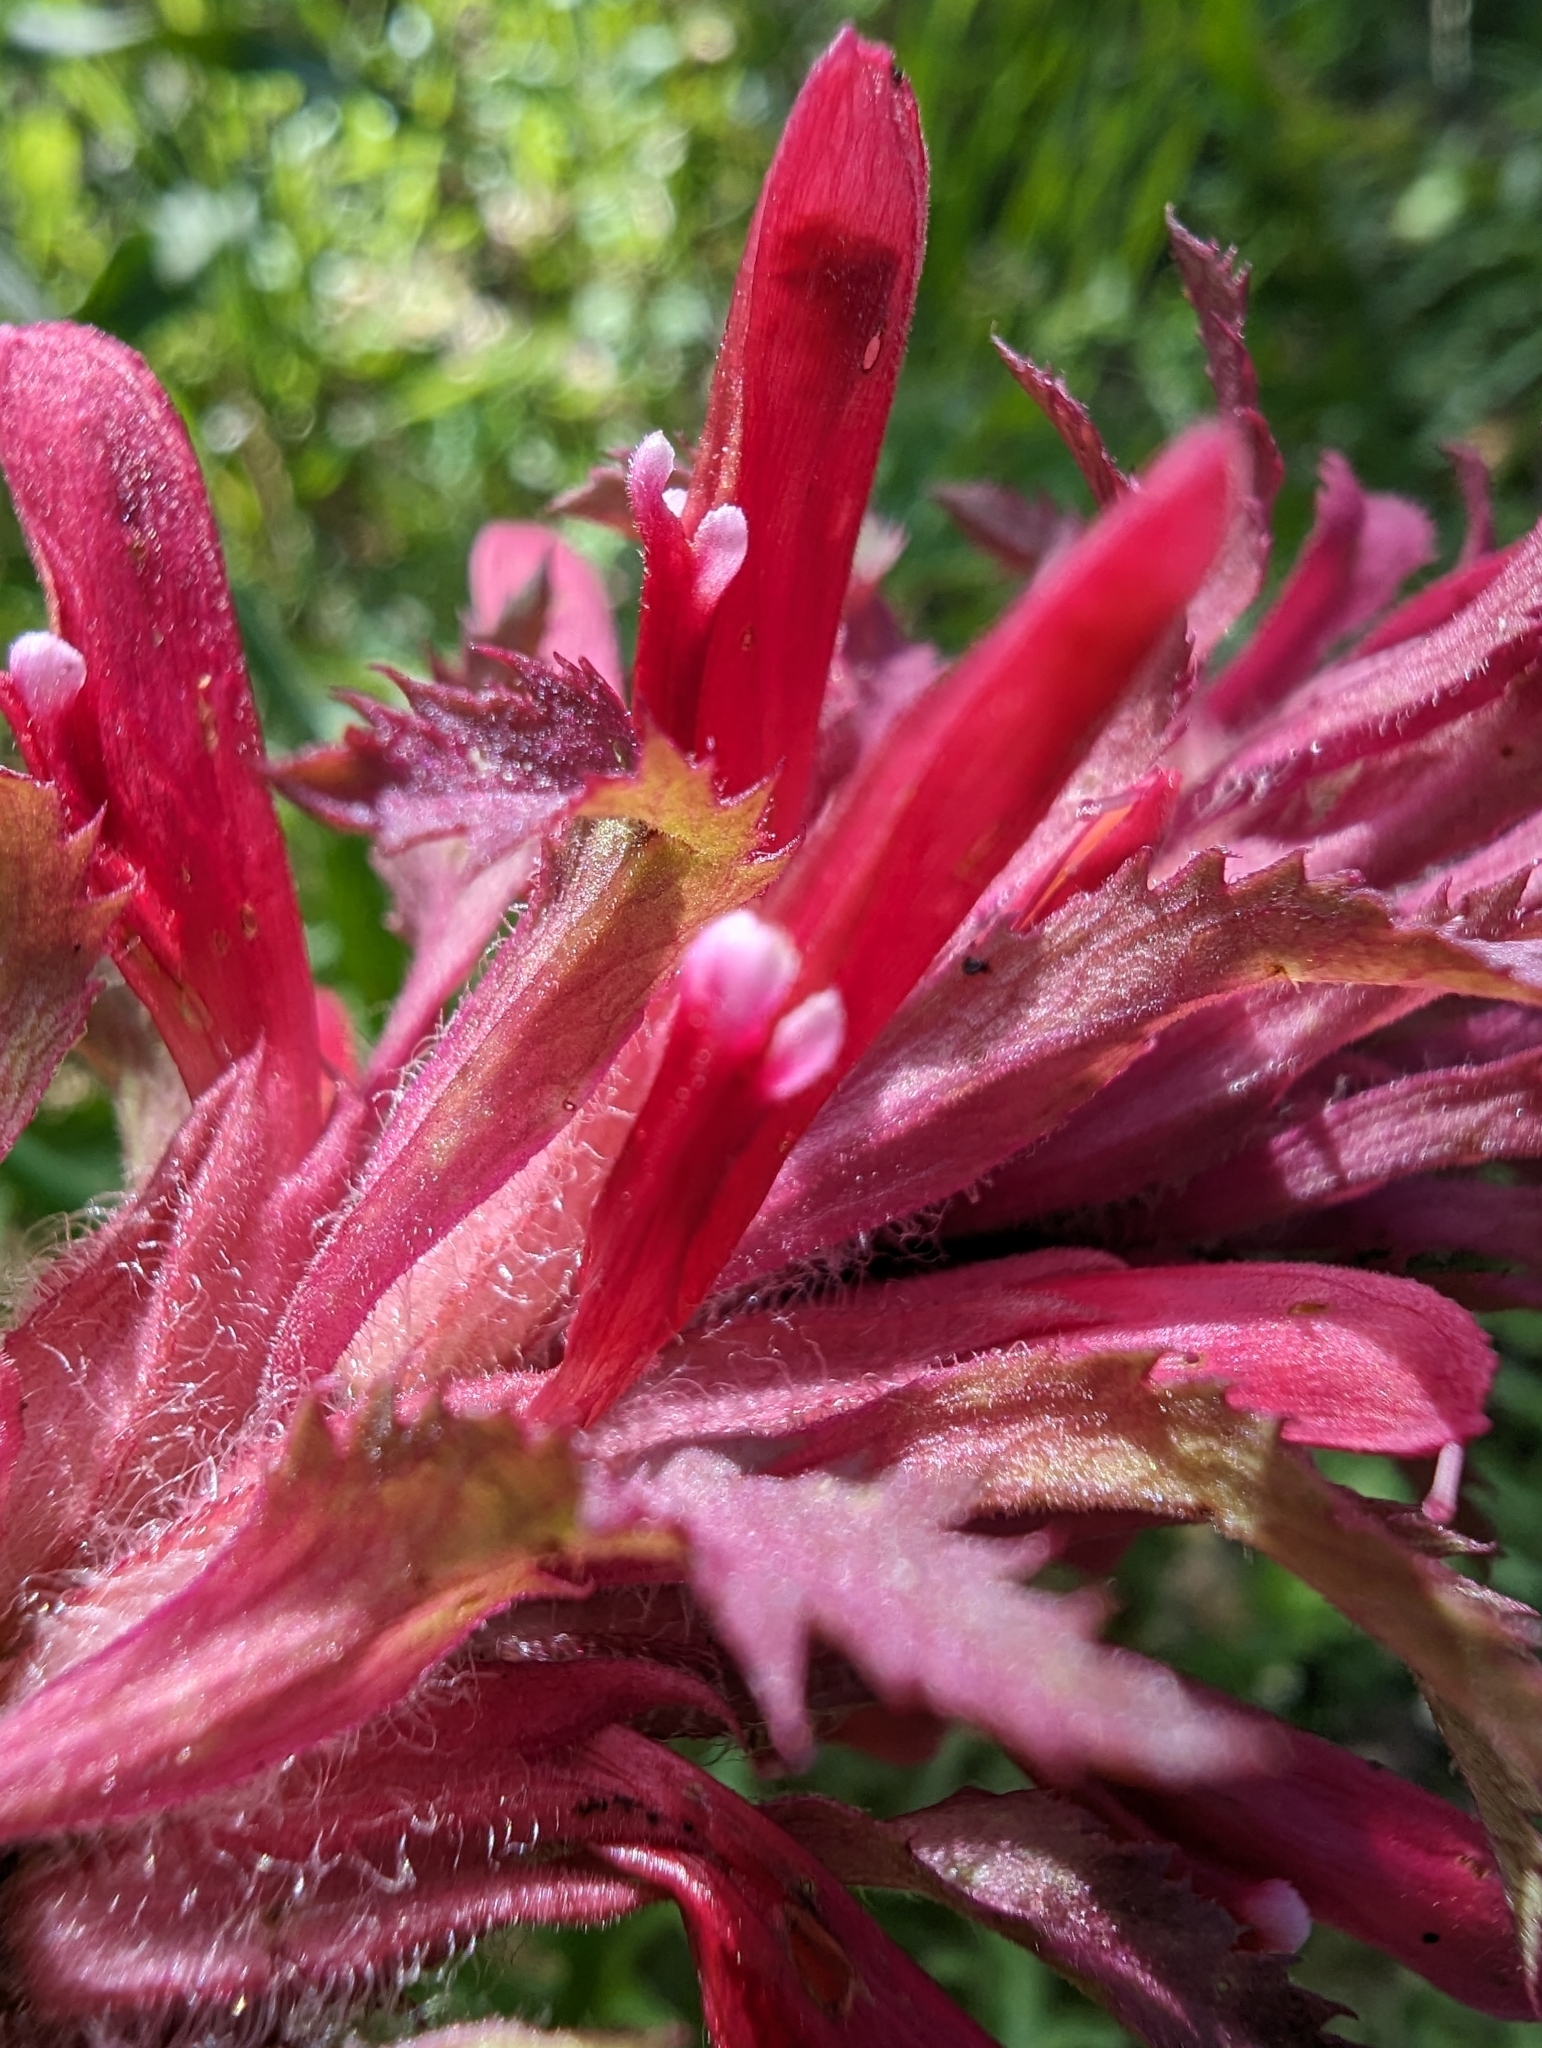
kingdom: Plantae
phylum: Tracheophyta
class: Magnoliopsida
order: Lamiales
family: Orobanchaceae
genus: Pedicularis
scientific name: Pedicularis densiflora
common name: Indian warrior
